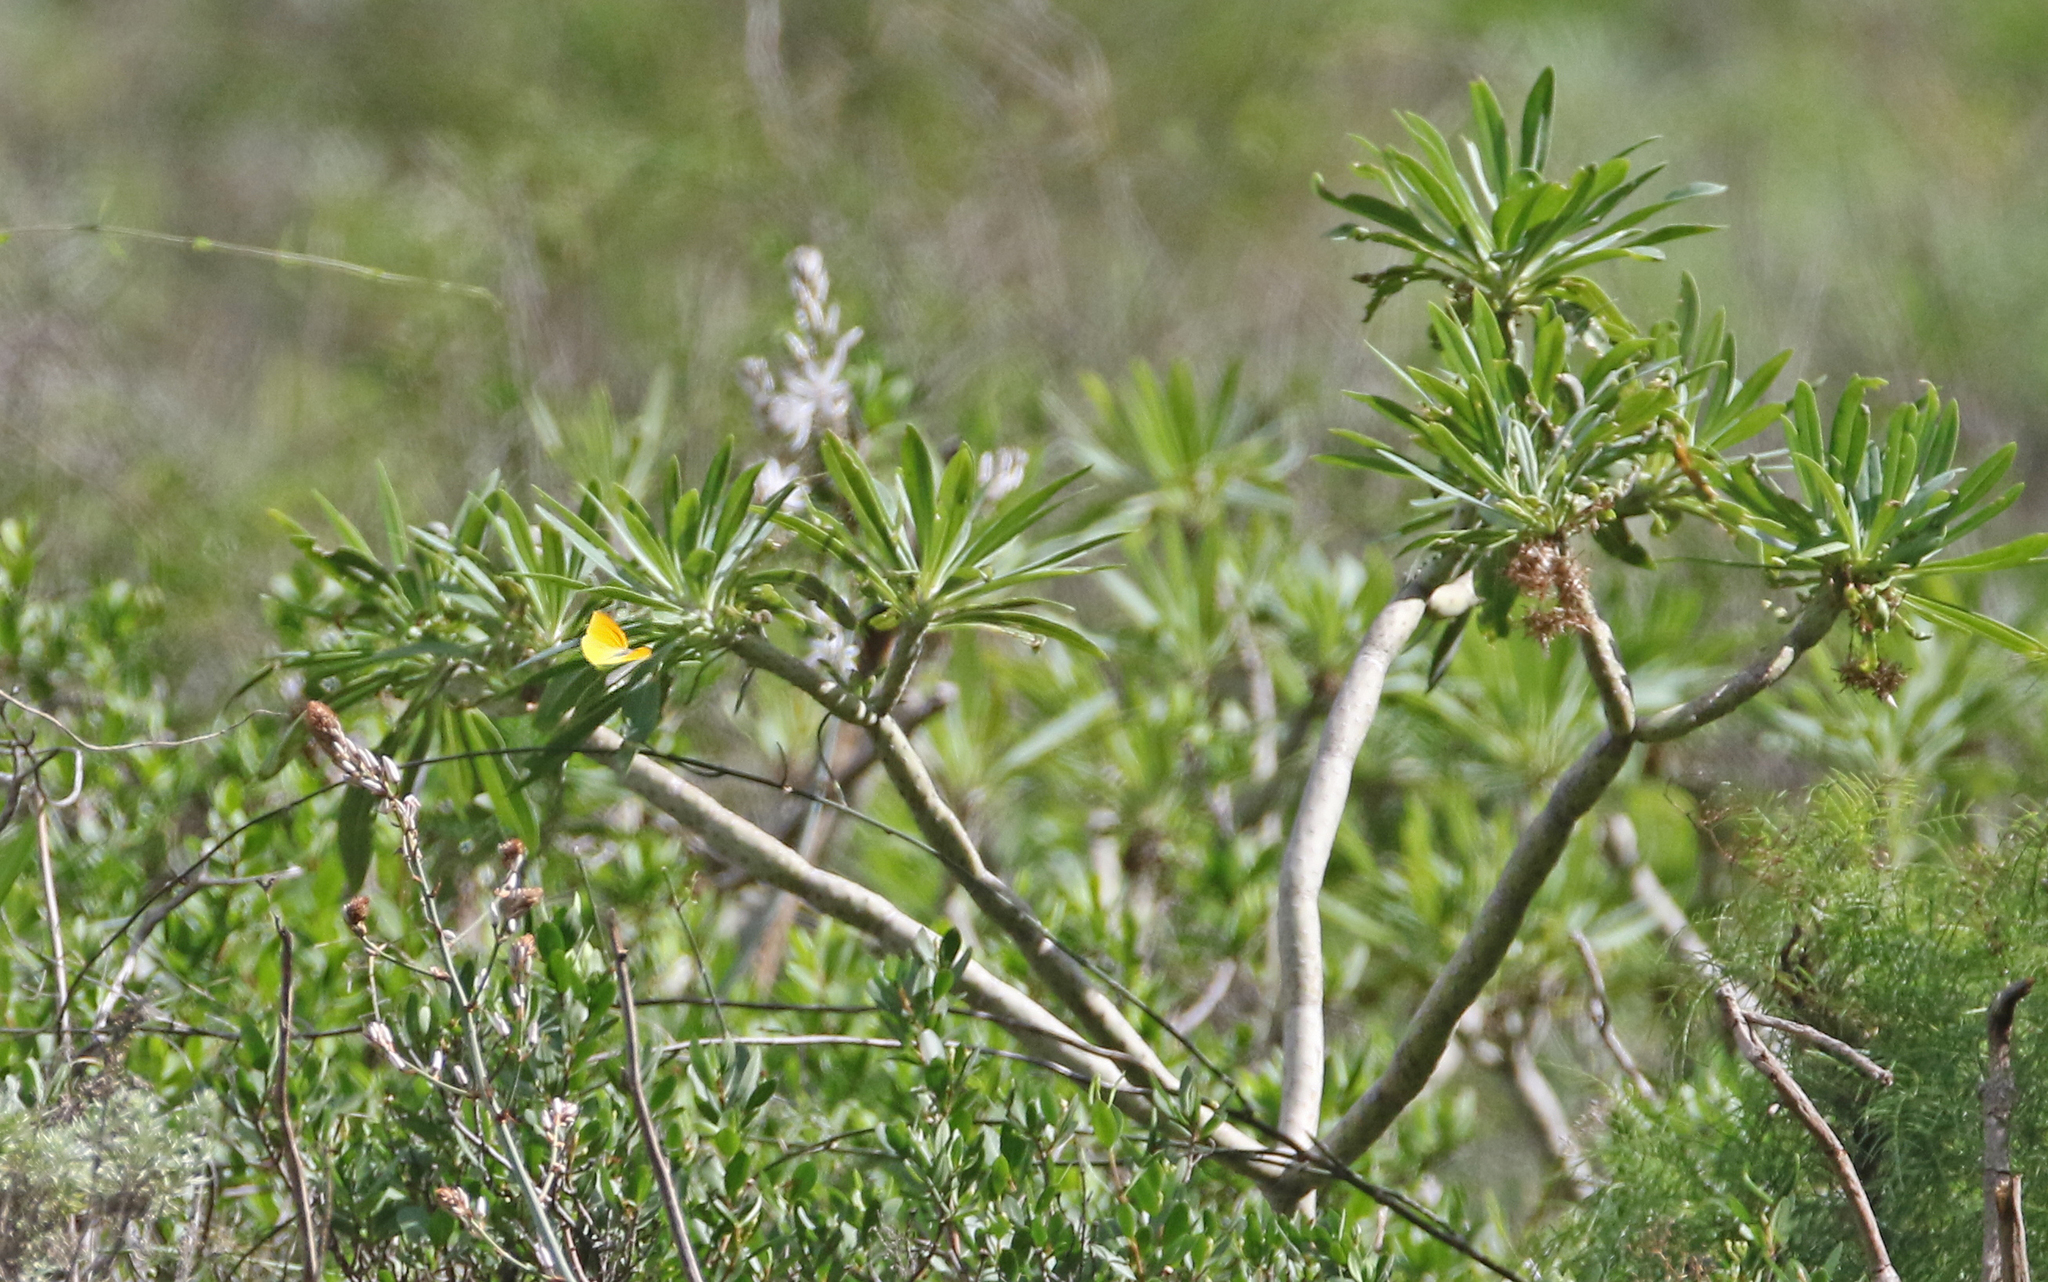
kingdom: Animalia
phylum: Arthropoda
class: Insecta
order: Lepidoptera
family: Pieridae
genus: Gonepteryx
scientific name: Gonepteryx cleobule
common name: Canary brimstone
